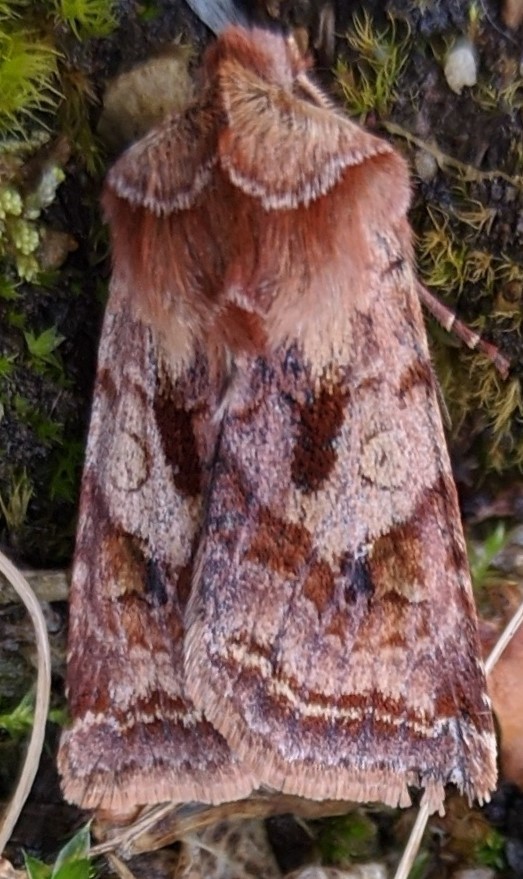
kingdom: Animalia
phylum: Arthropoda
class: Insecta
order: Lepidoptera
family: Noctuidae
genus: Cerastis
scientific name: Cerastis salicarum
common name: Willow dart
